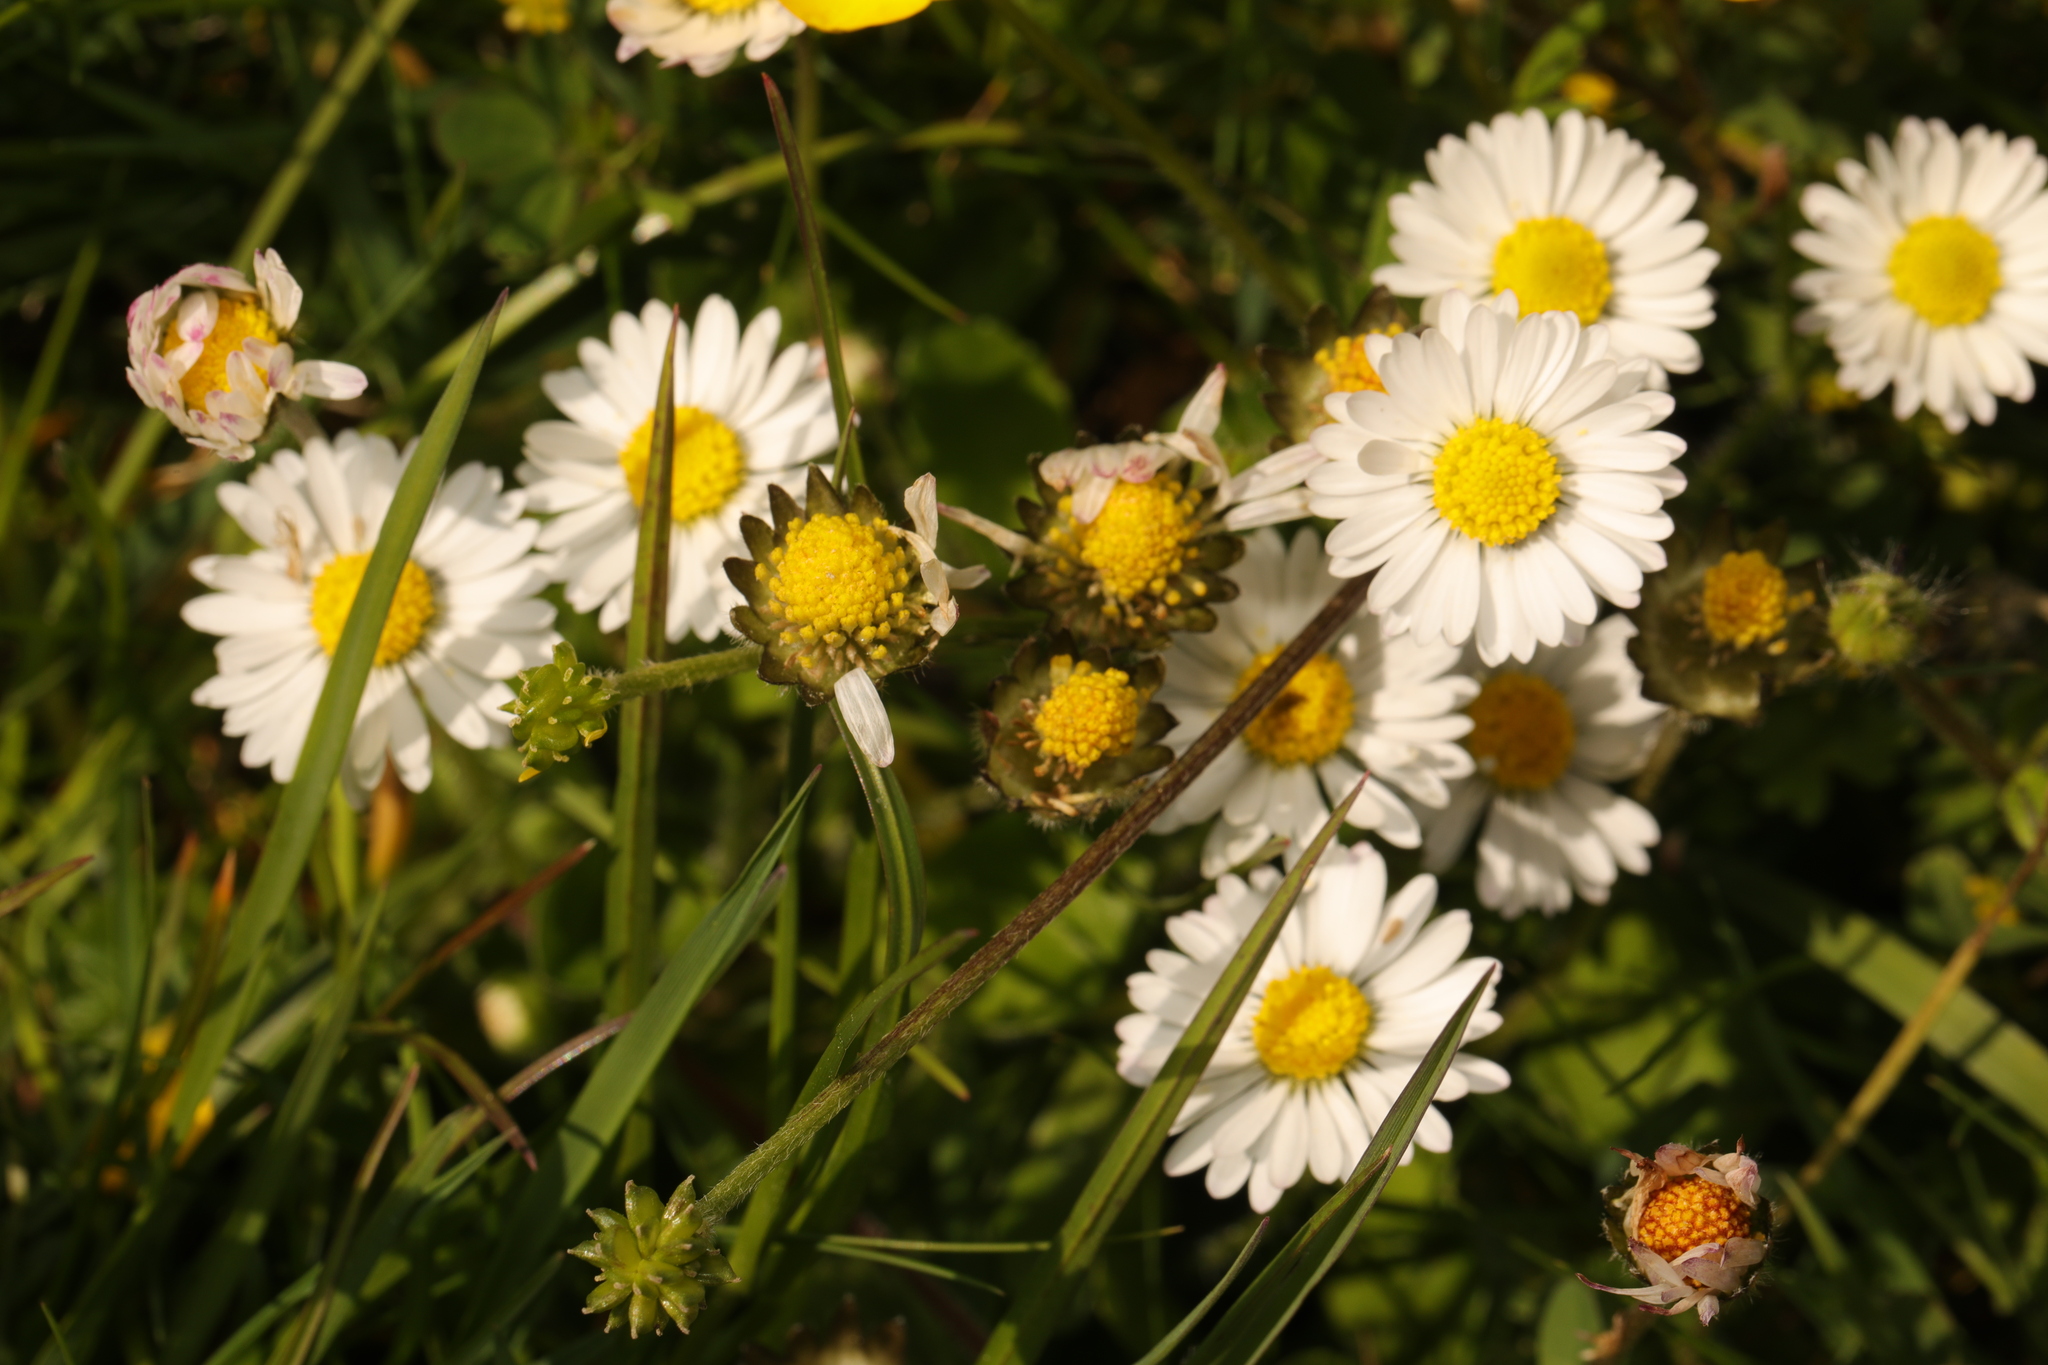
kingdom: Plantae
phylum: Tracheophyta
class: Magnoliopsida
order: Asterales
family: Asteraceae
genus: Bellis
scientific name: Bellis perennis
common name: Lawndaisy
